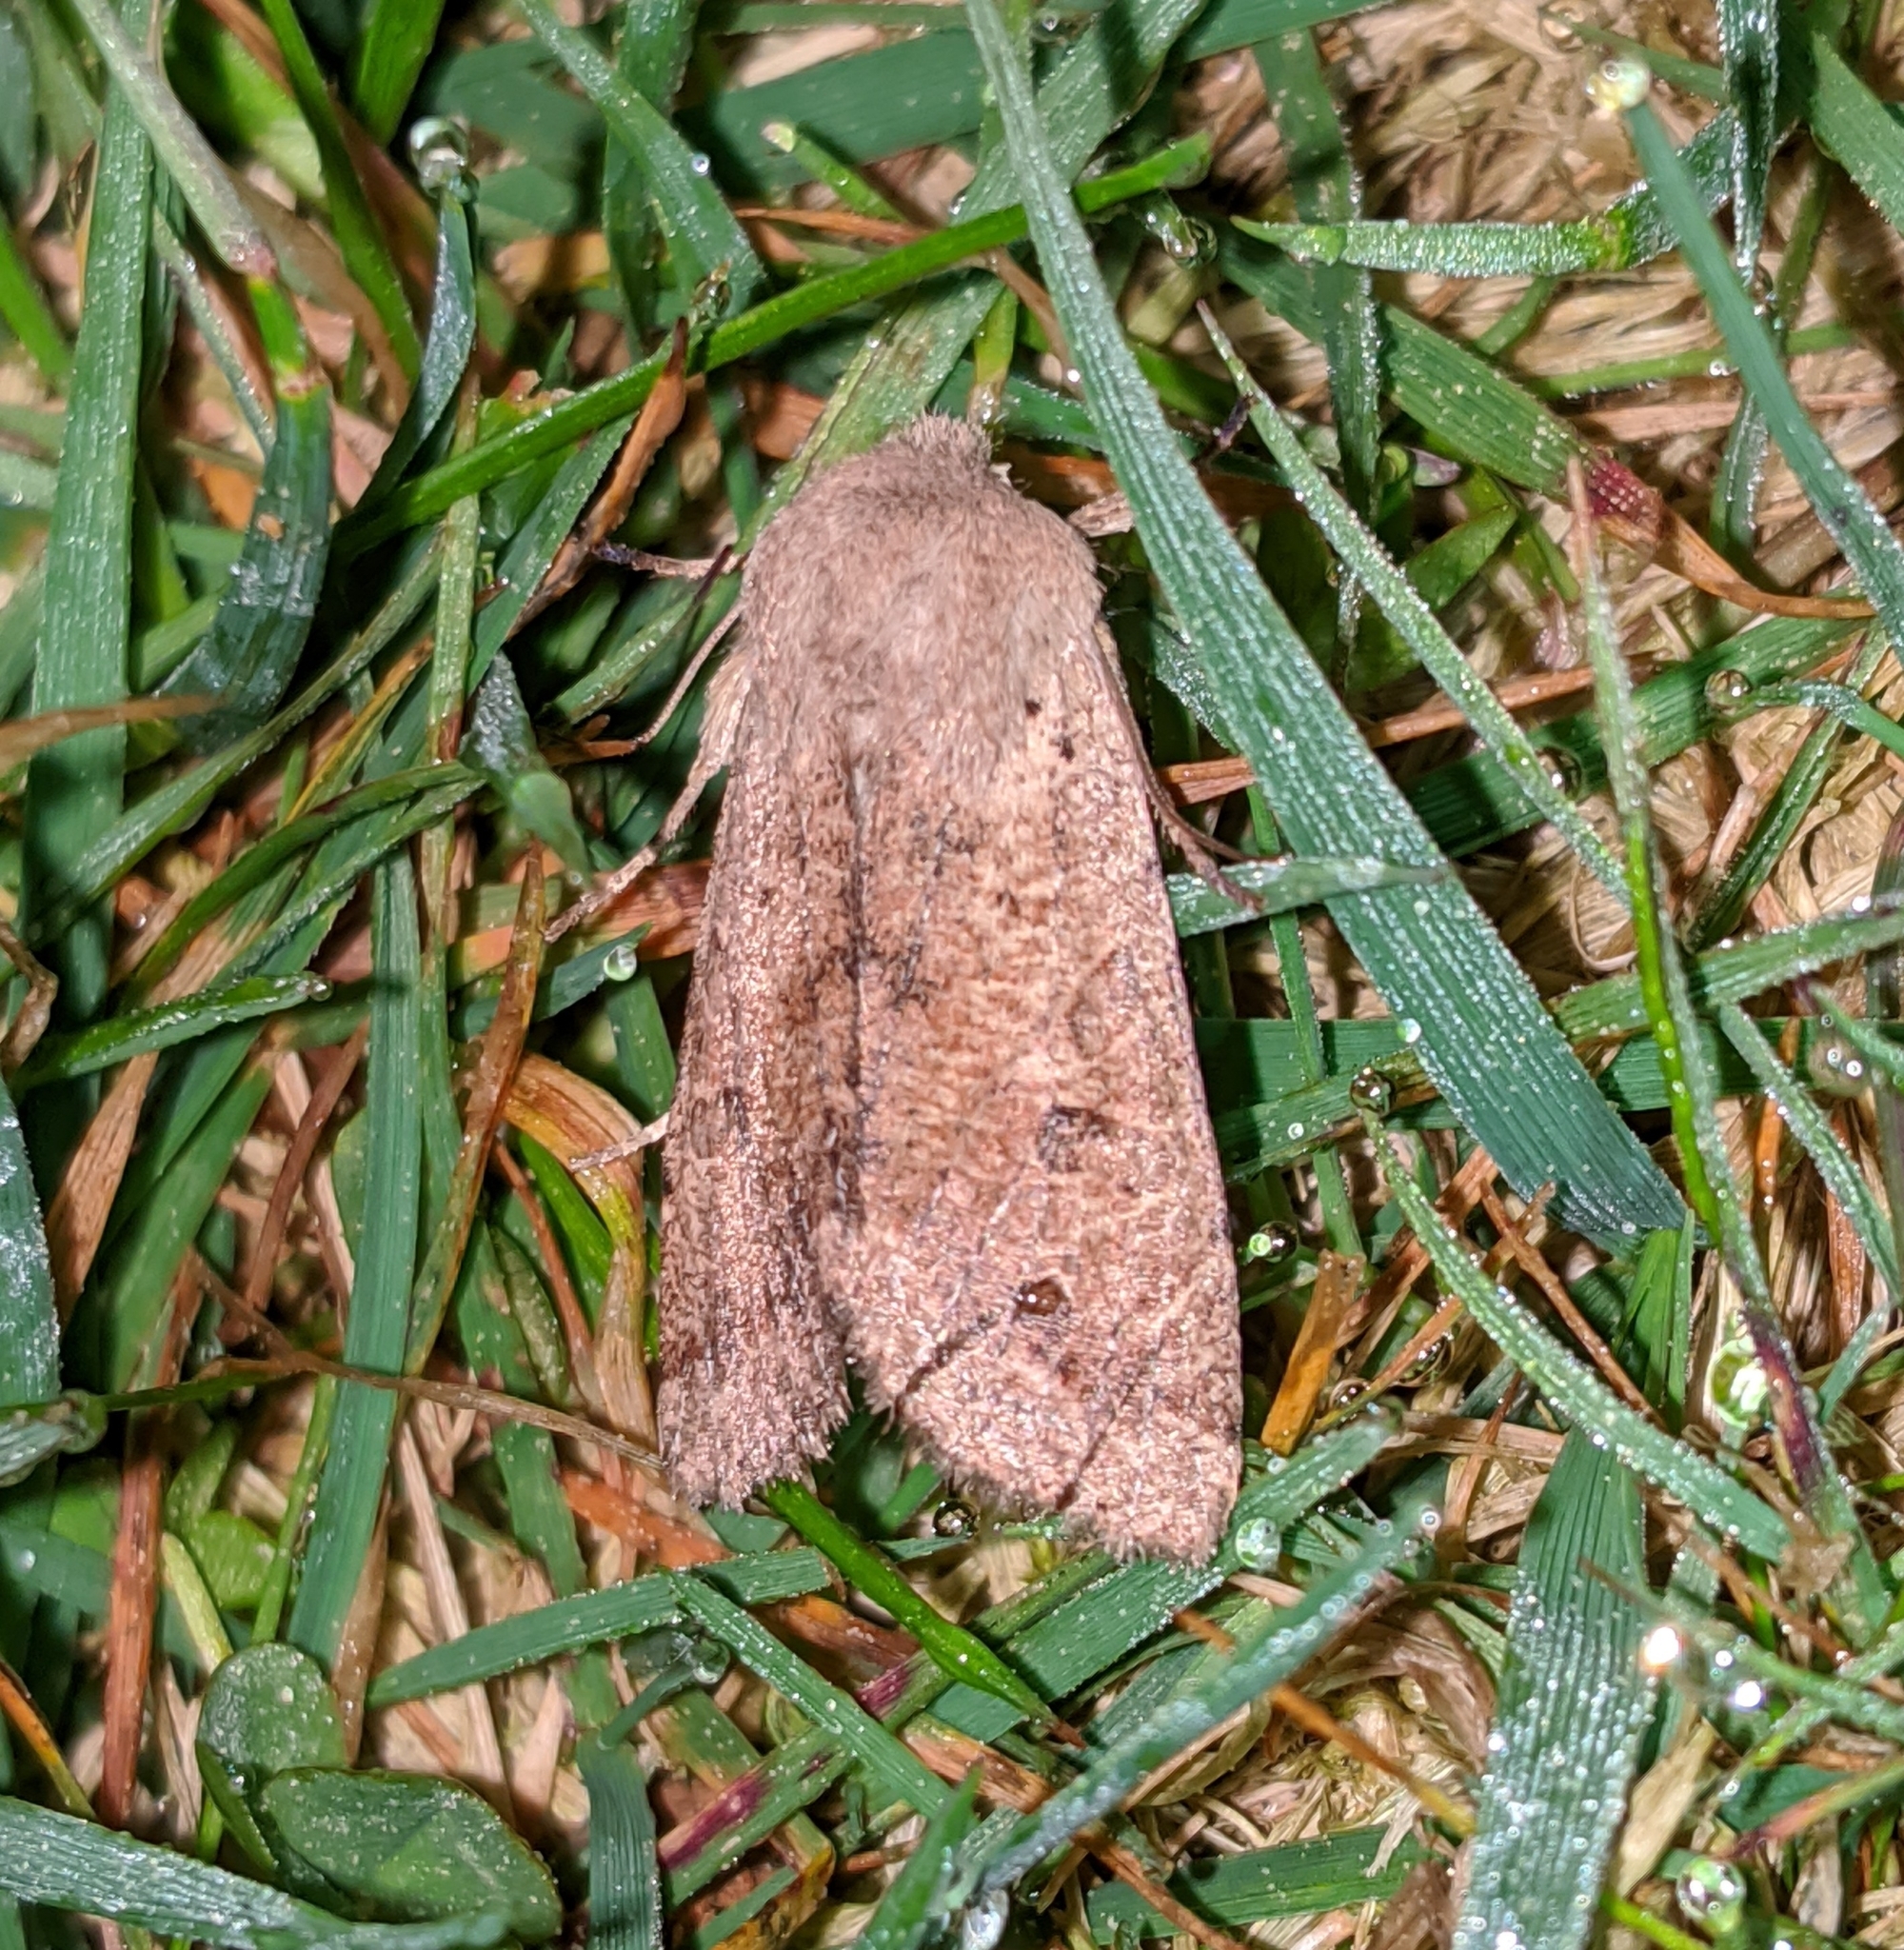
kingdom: Animalia
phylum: Arthropoda
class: Insecta
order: Lepidoptera
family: Noctuidae
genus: Orthosia
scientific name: Orthosia pacifica
